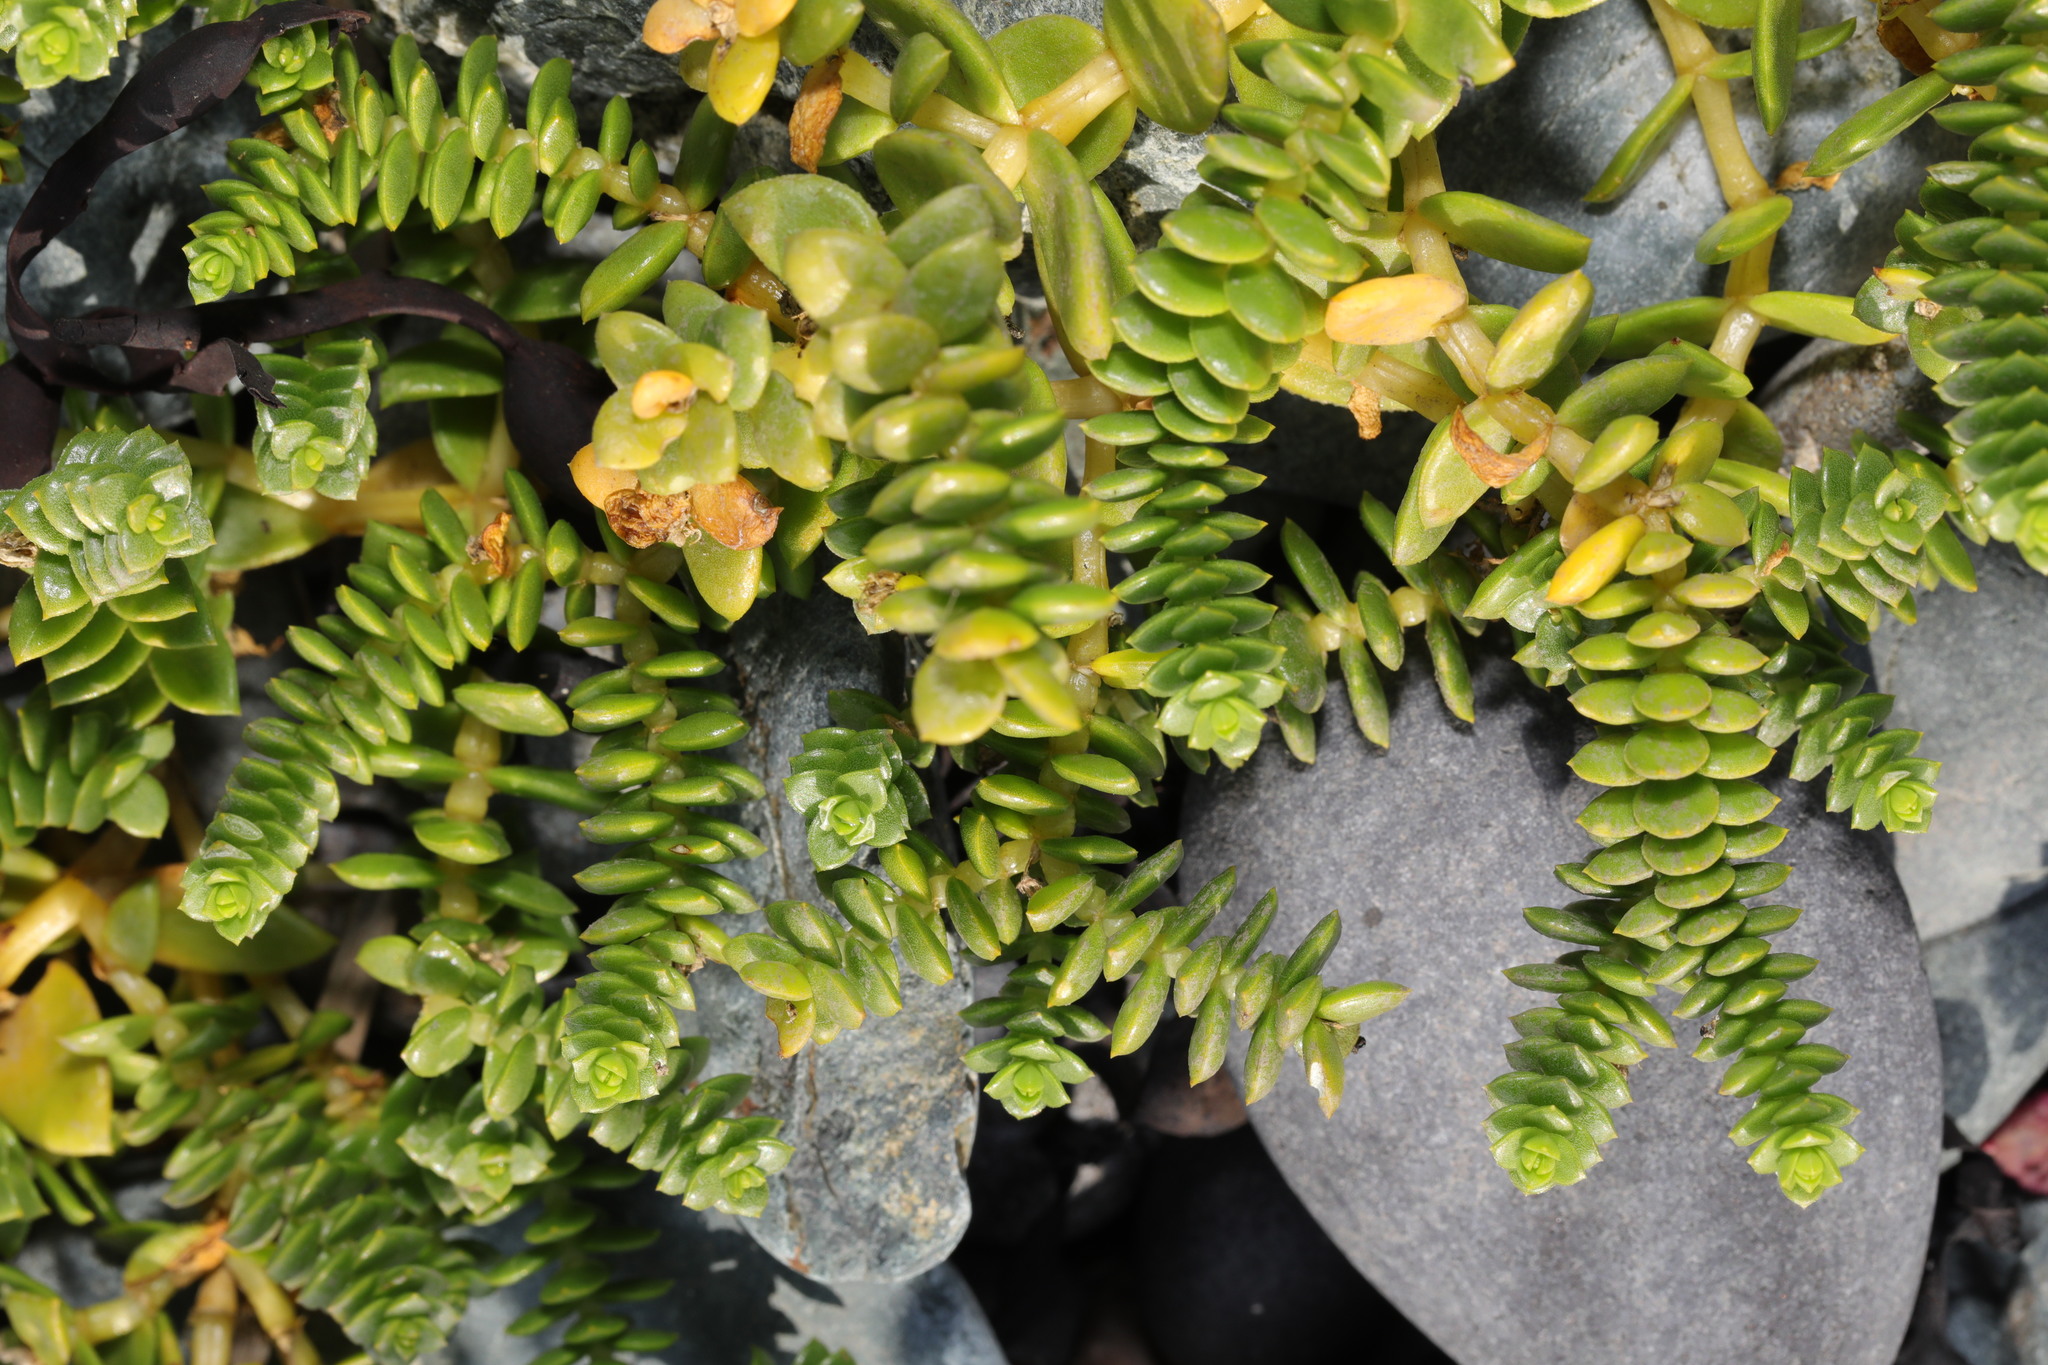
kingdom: Plantae
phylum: Tracheophyta
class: Magnoliopsida
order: Caryophyllales
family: Caryophyllaceae
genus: Honckenya
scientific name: Honckenya peploides
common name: Sea sandwort
